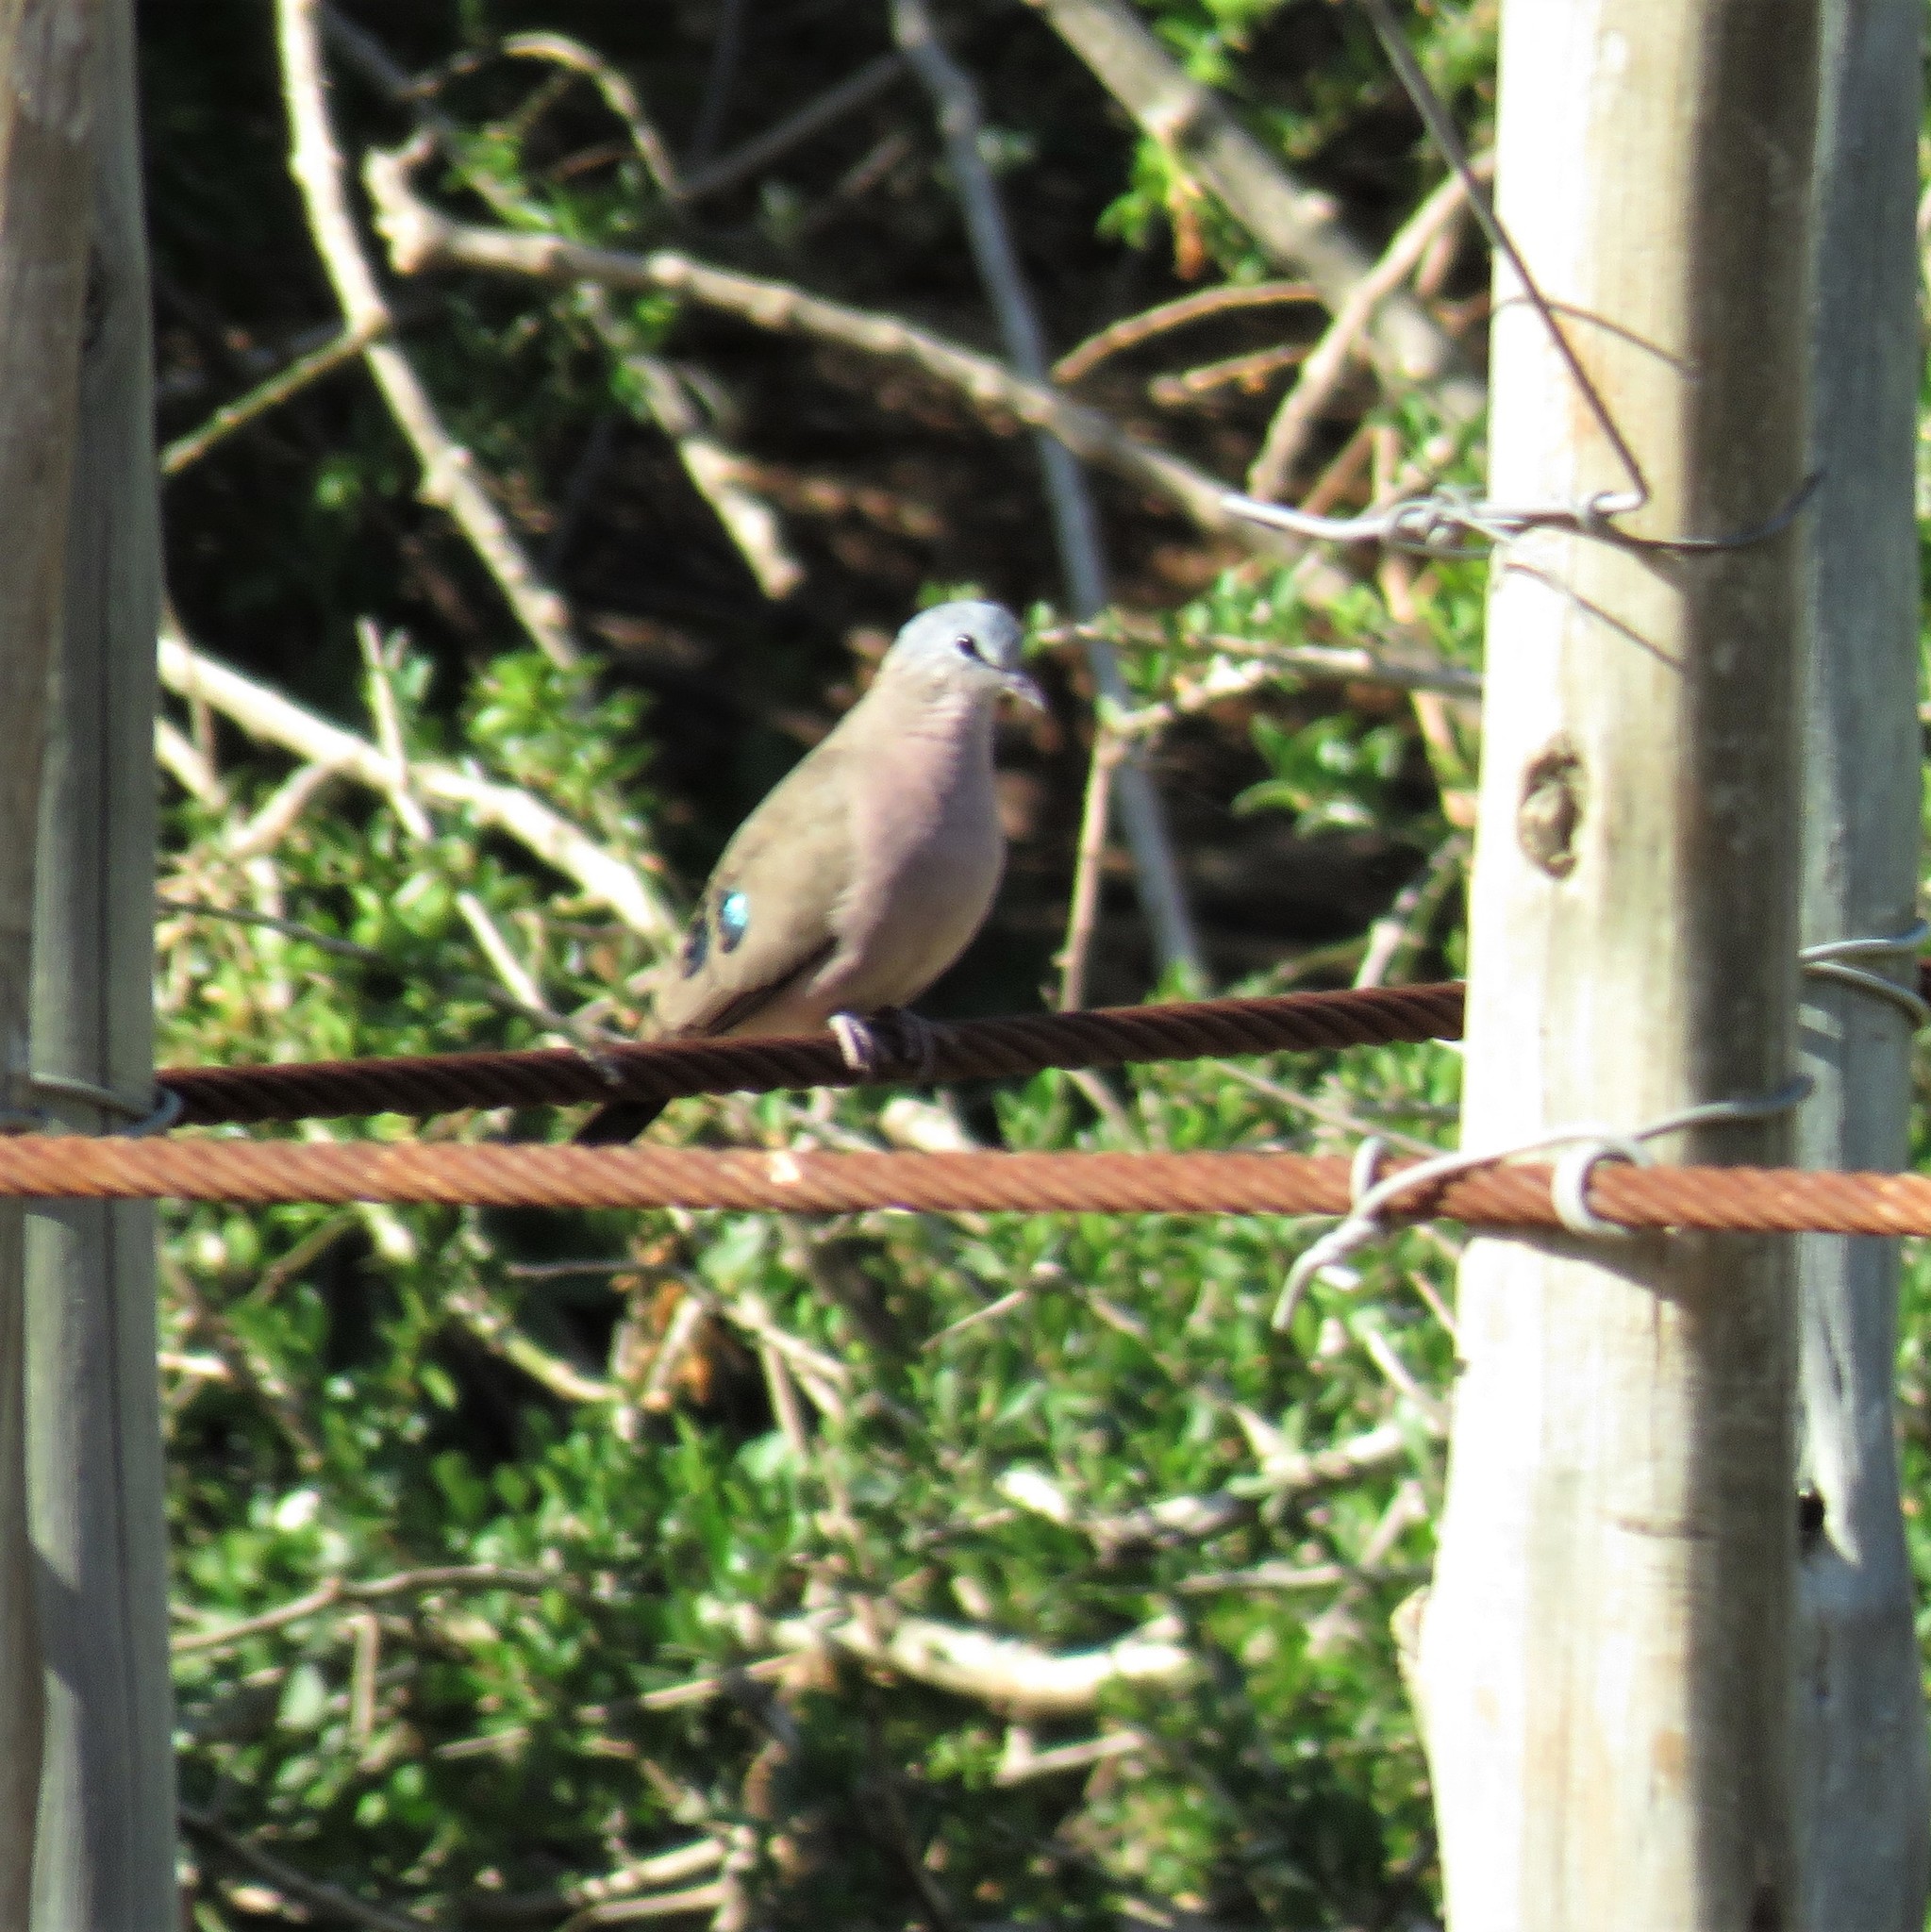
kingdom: Animalia
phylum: Chordata
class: Aves
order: Columbiformes
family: Columbidae
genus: Turtur
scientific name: Turtur chalcospilos
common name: Emerald-spotted wood dove
